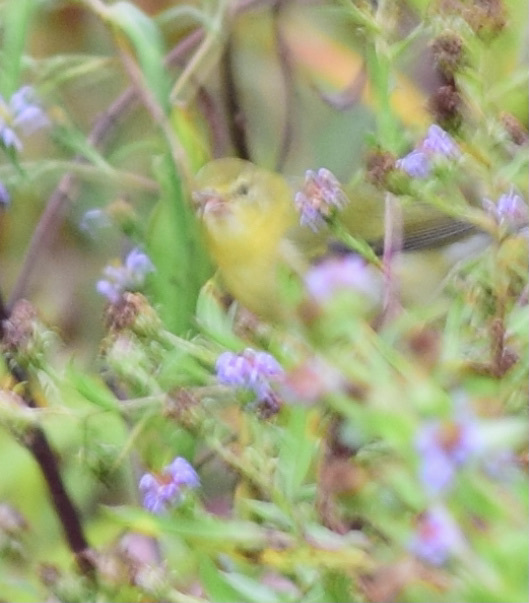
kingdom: Animalia
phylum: Chordata
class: Aves
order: Passeriformes
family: Parulidae
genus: Leiothlypis
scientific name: Leiothlypis peregrina
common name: Tennessee warbler
